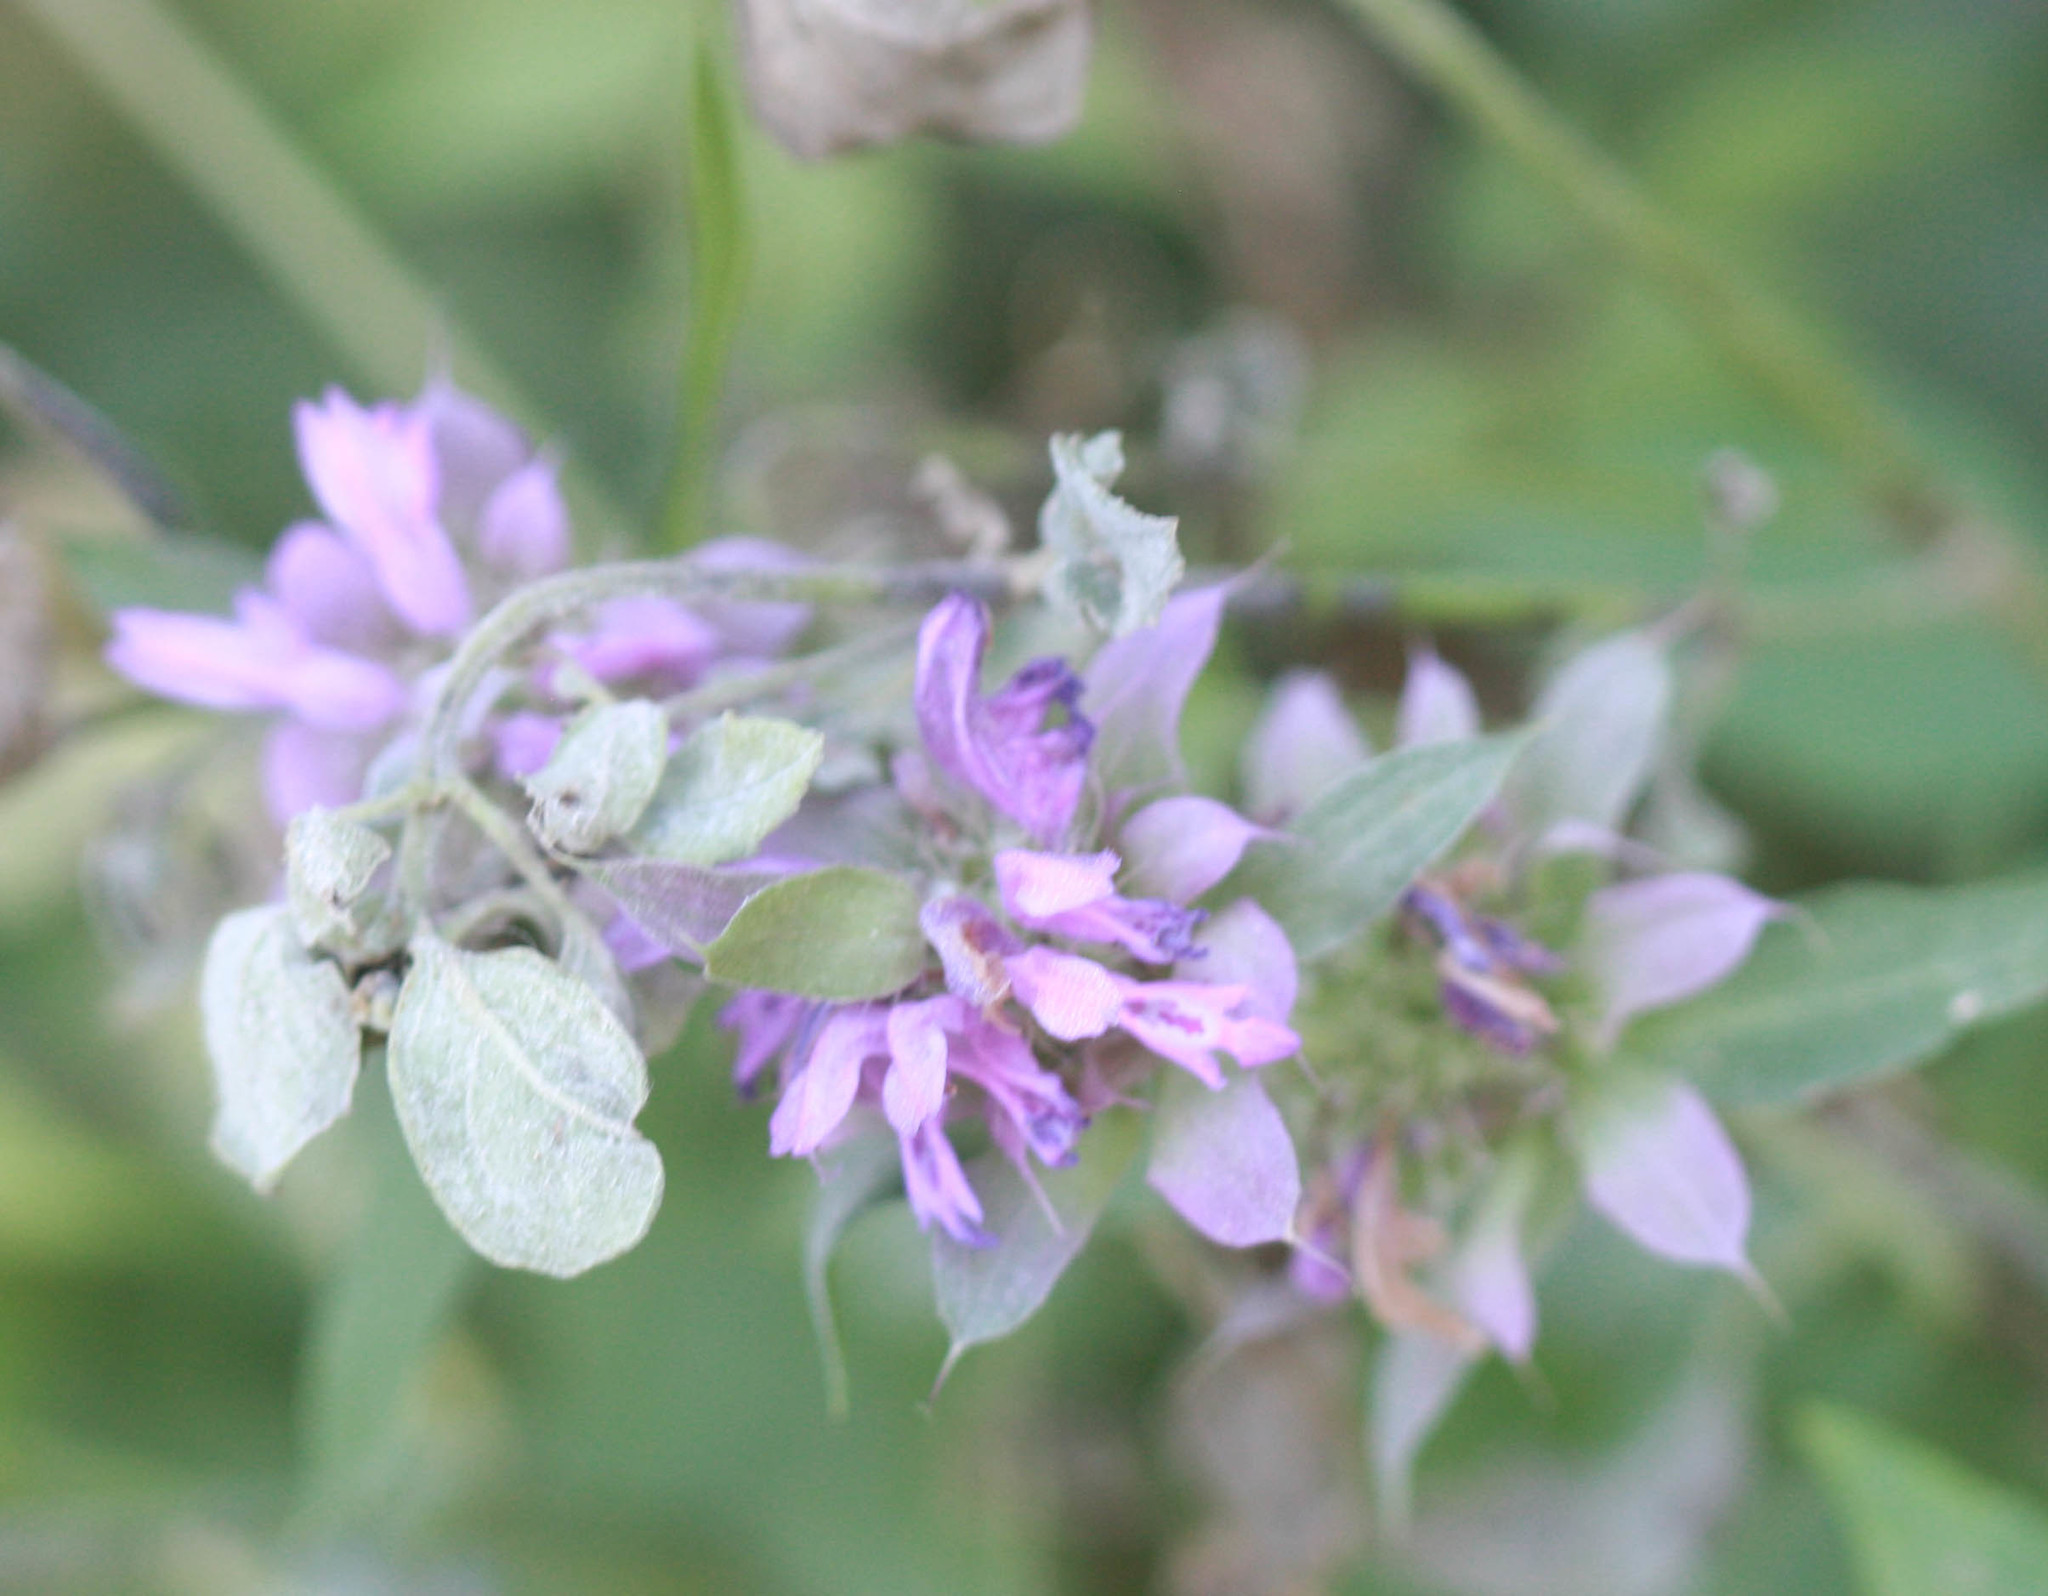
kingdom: Plantae
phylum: Tracheophyta
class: Magnoliopsida
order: Lamiales
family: Lamiaceae
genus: Monarda
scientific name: Monarda citriodora
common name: Lemon beebalm
